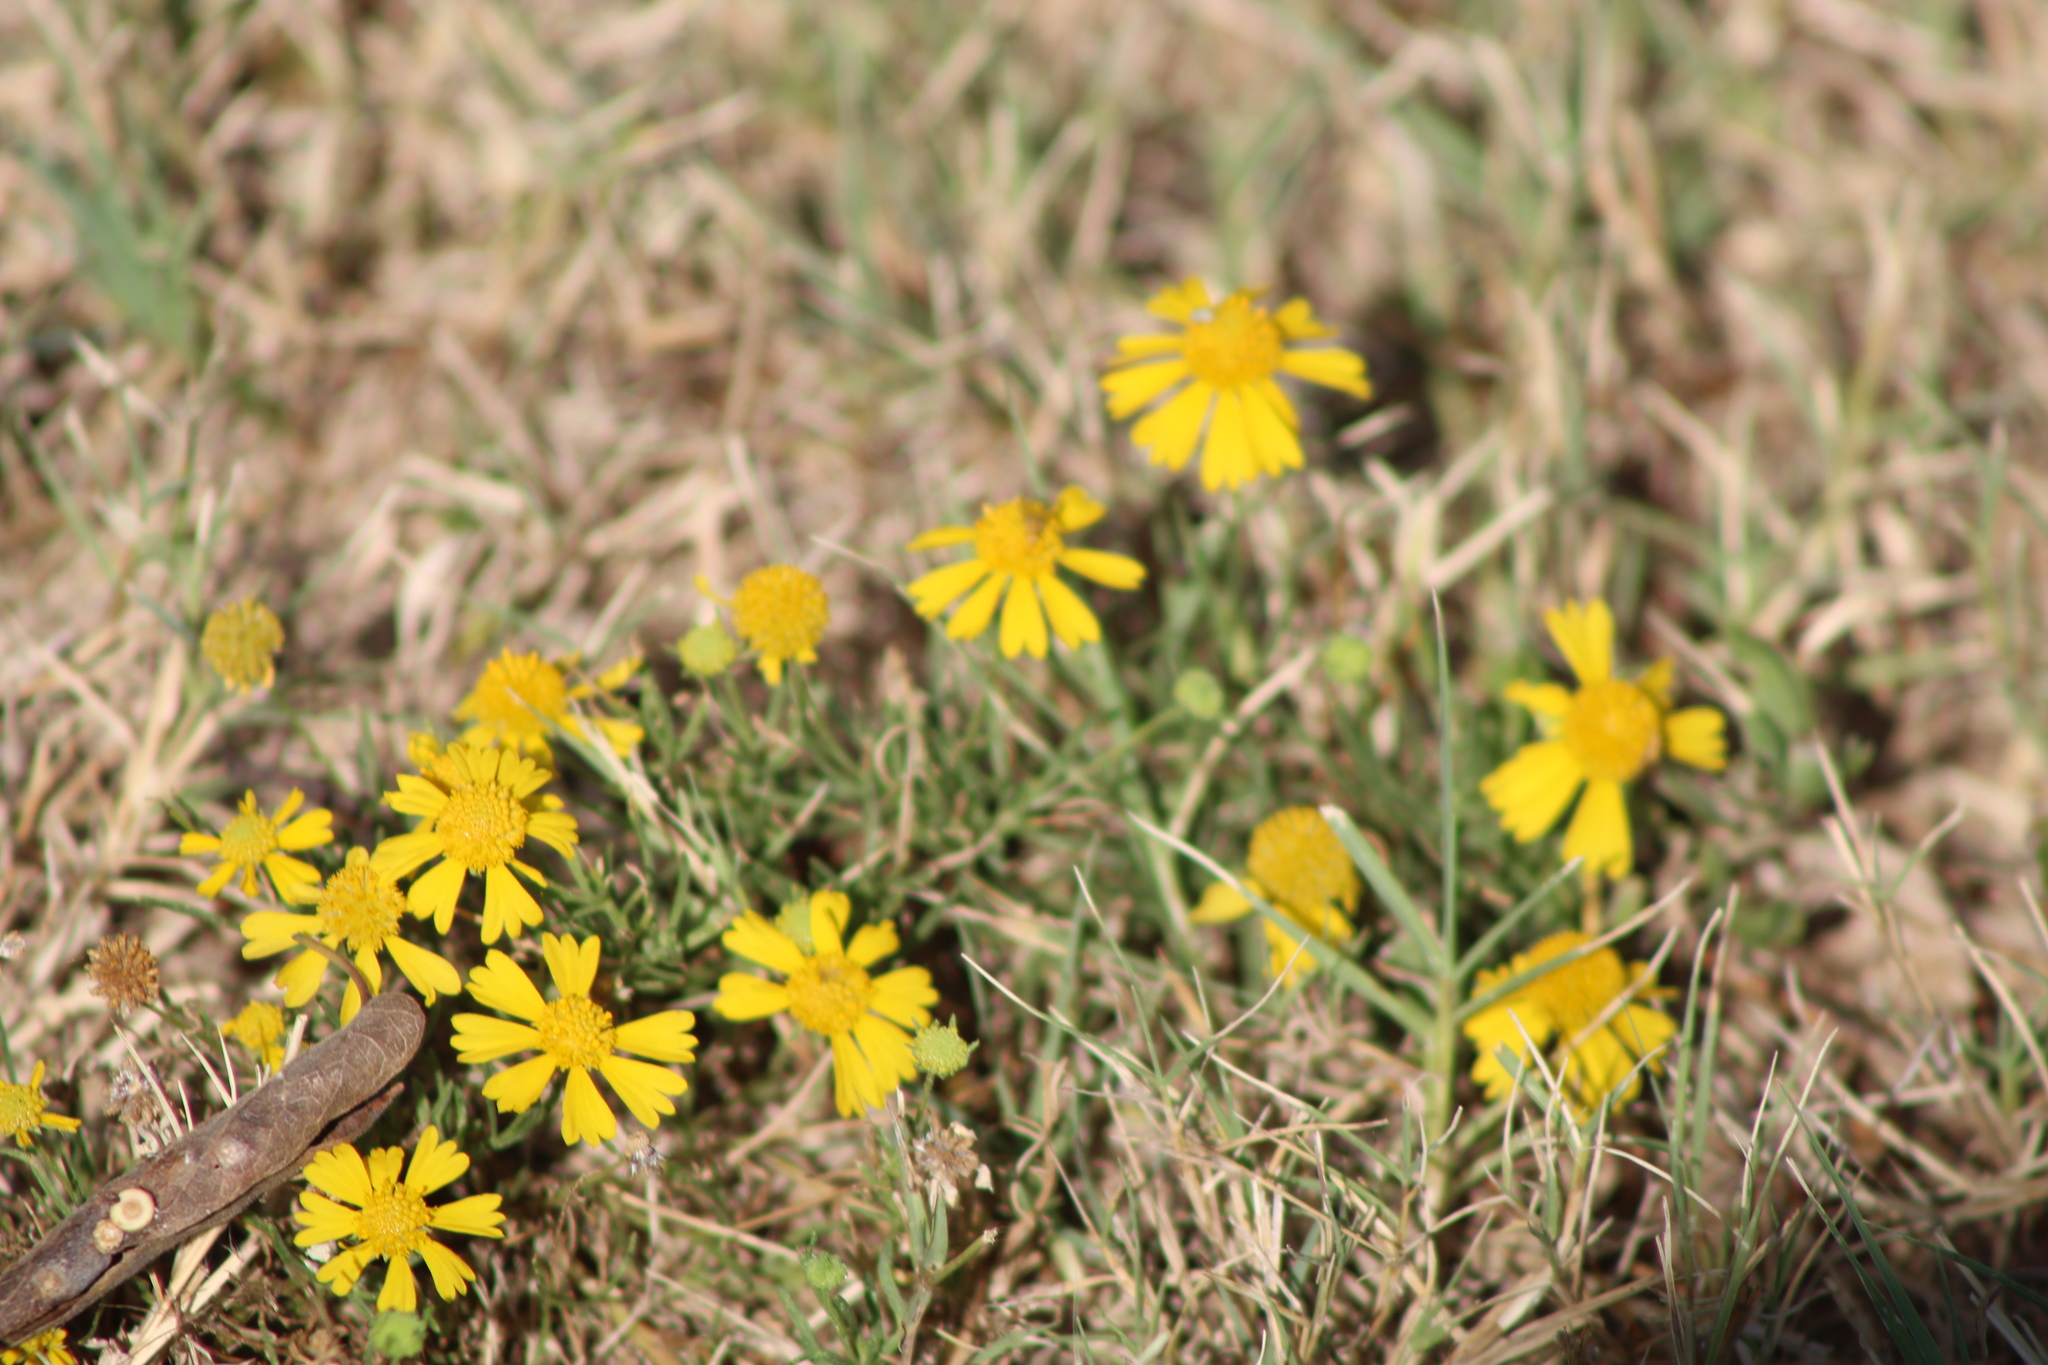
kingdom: Plantae
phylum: Tracheophyta
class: Magnoliopsida
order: Asterales
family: Asteraceae
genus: Helenium
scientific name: Helenium amarum
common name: Bitter sneezeweed
